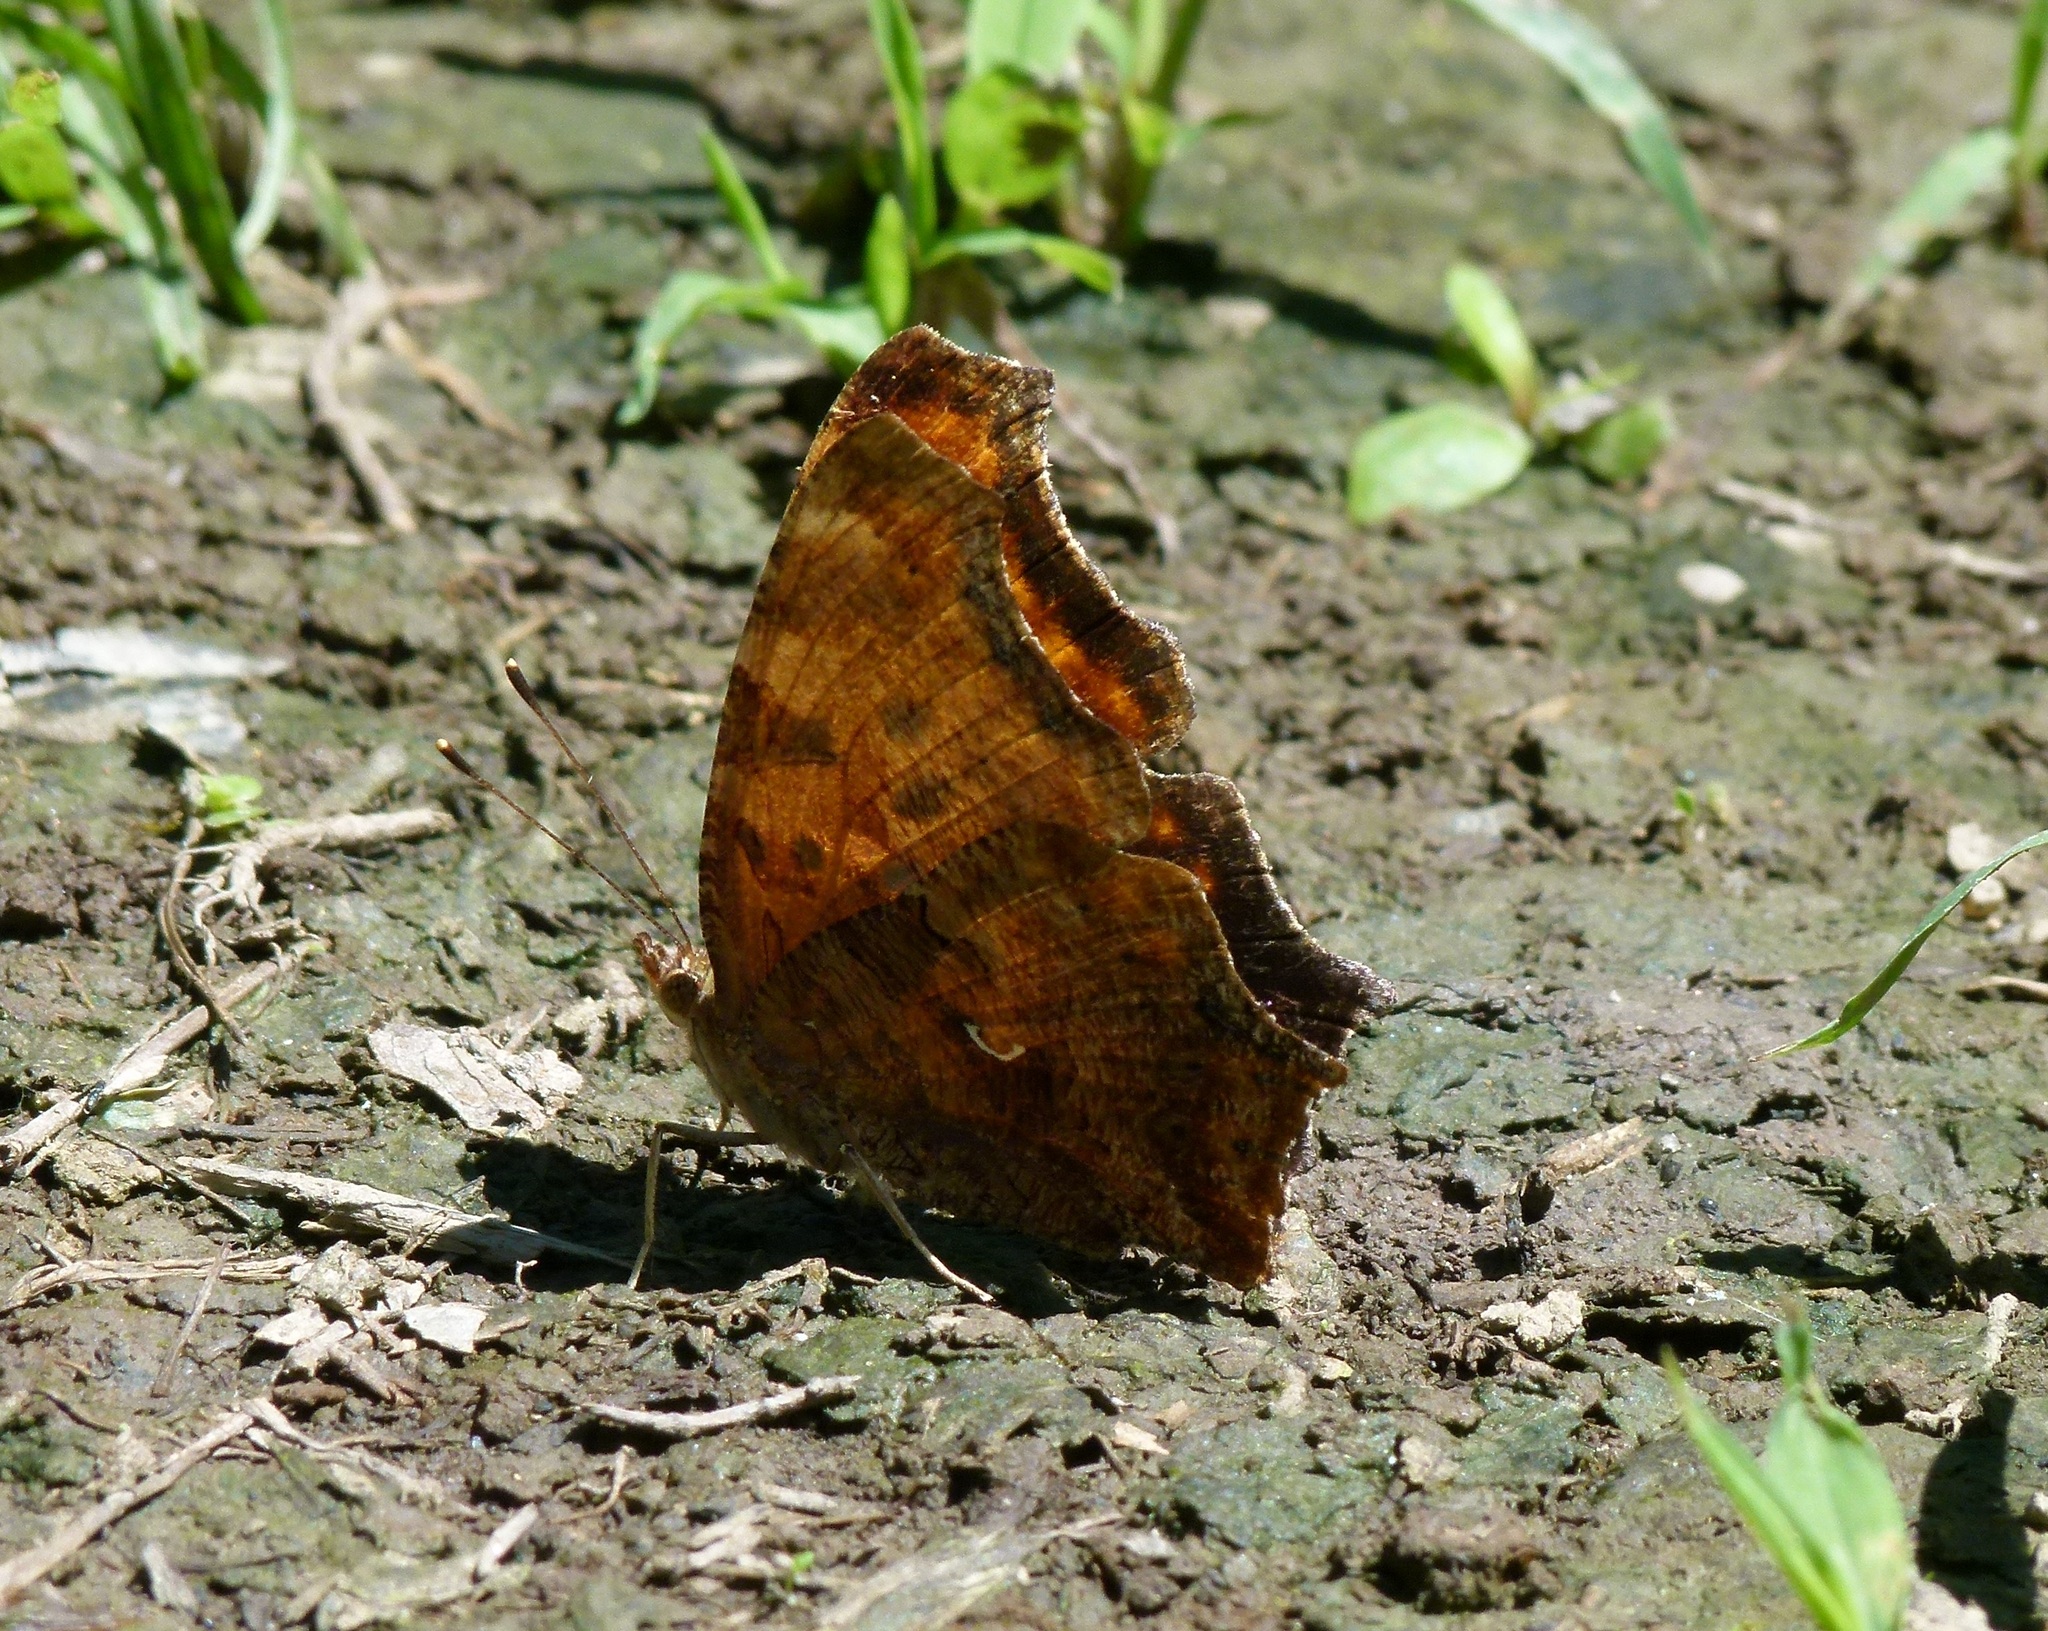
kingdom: Animalia
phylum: Arthropoda
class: Insecta
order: Lepidoptera
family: Nymphalidae
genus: Polygonia
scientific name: Polygonia comma
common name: Eastern comma
